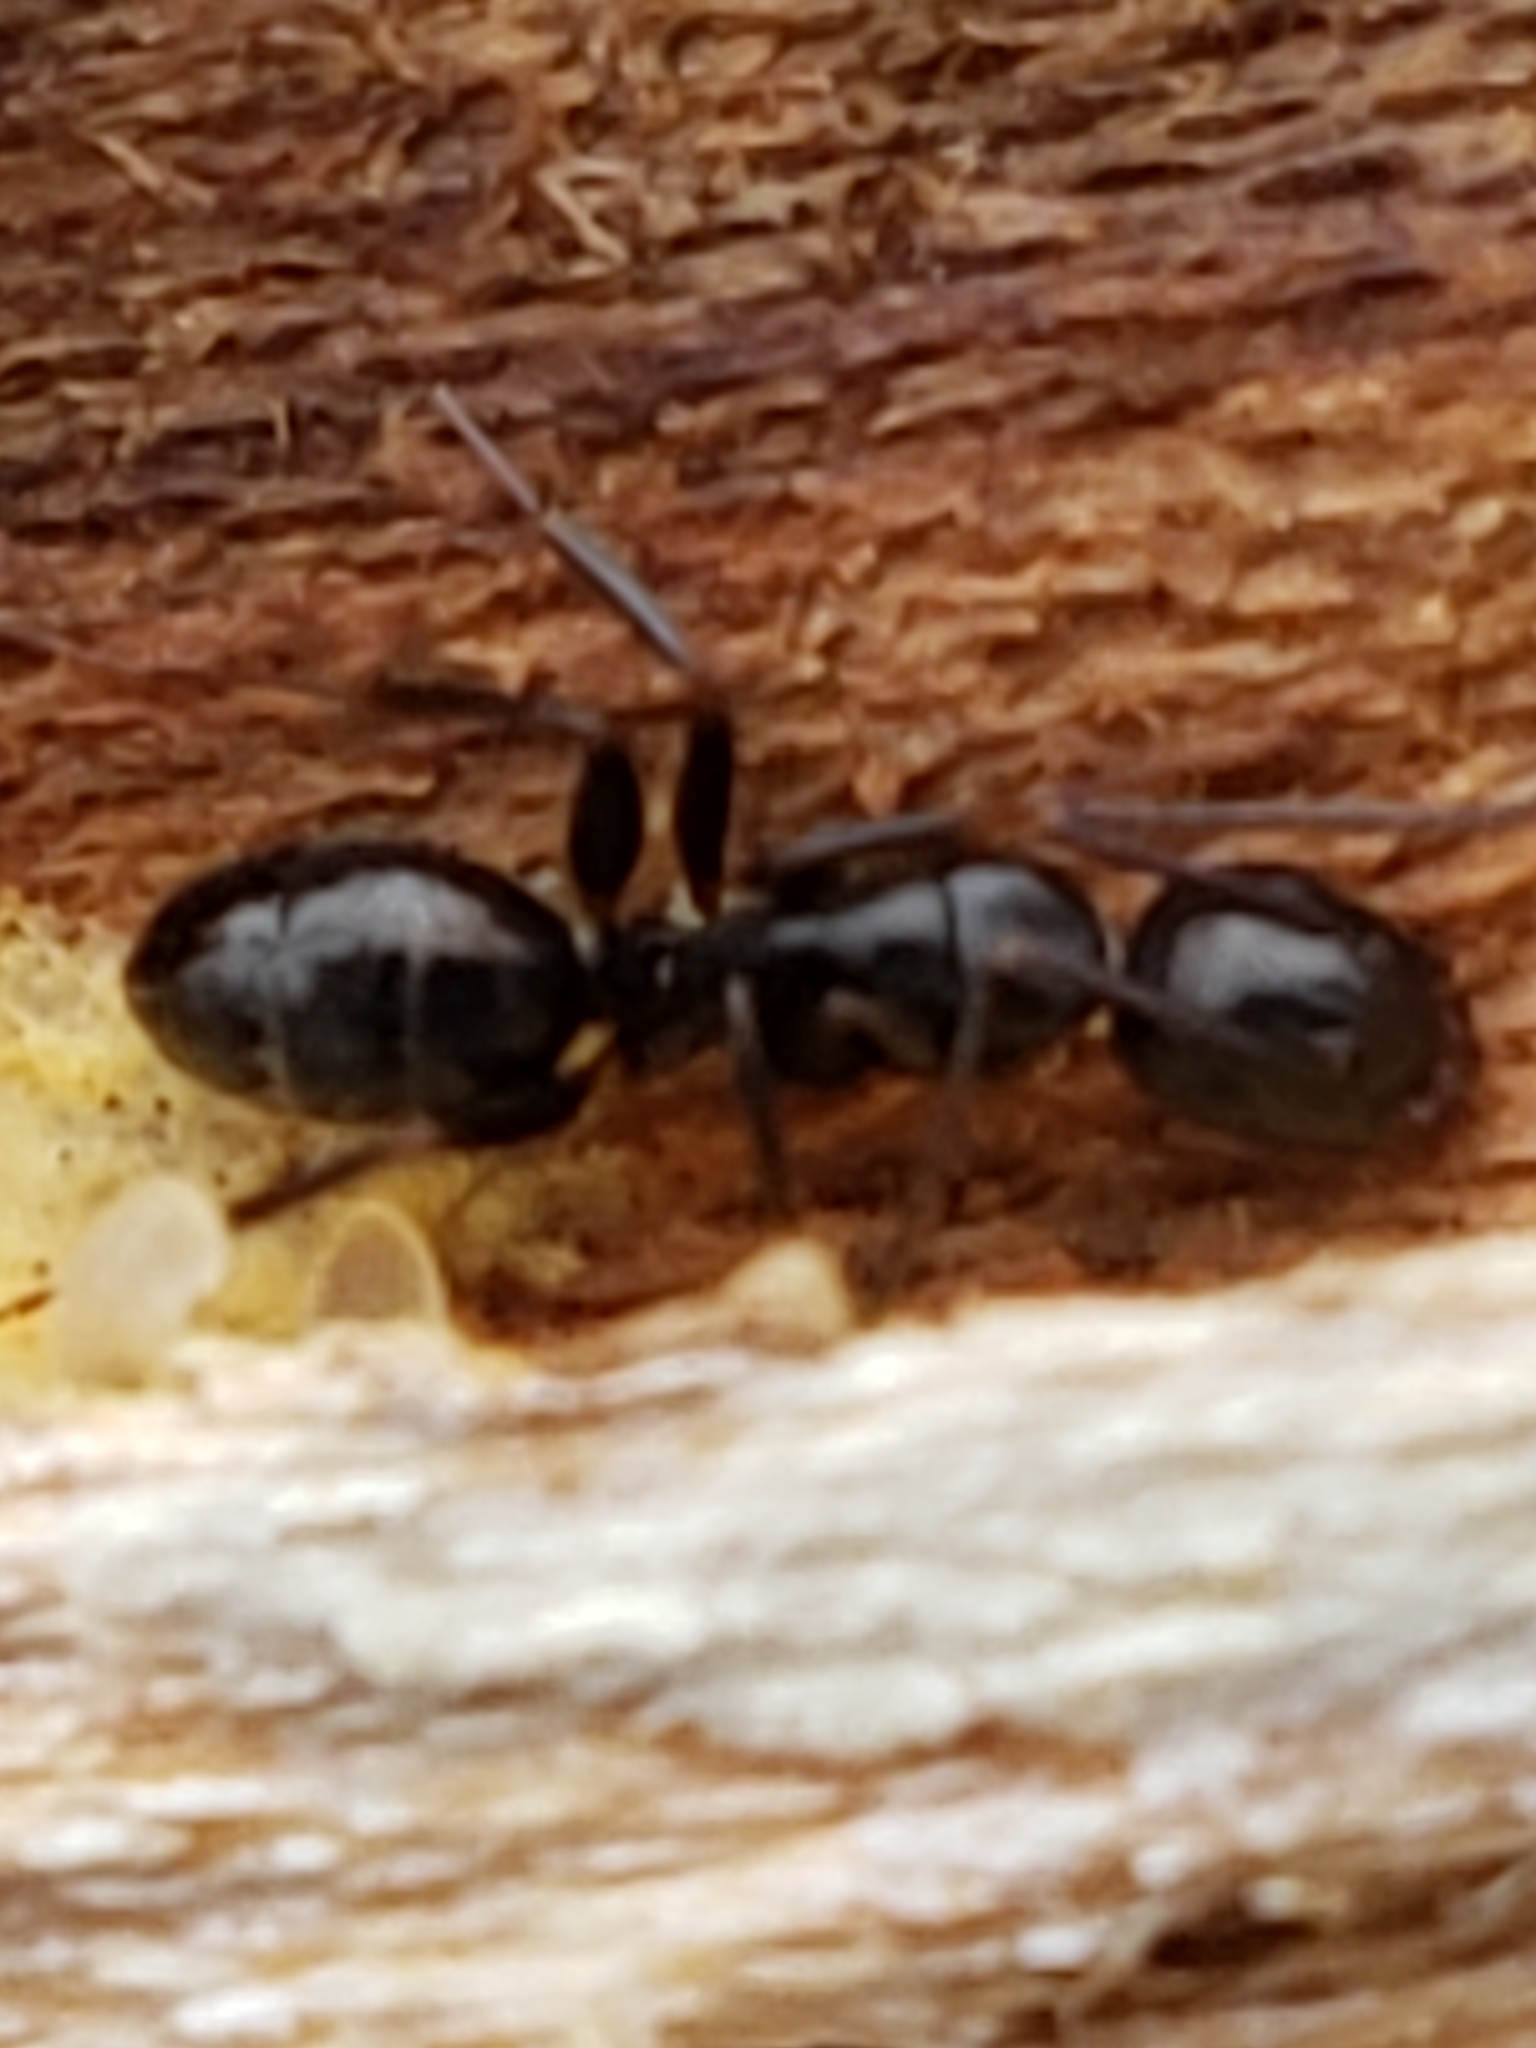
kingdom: Animalia
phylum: Arthropoda
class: Insecta
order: Hymenoptera
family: Formicidae
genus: Camponotus
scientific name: Camponotus pennsylvanicus
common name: Black carpenter ant
